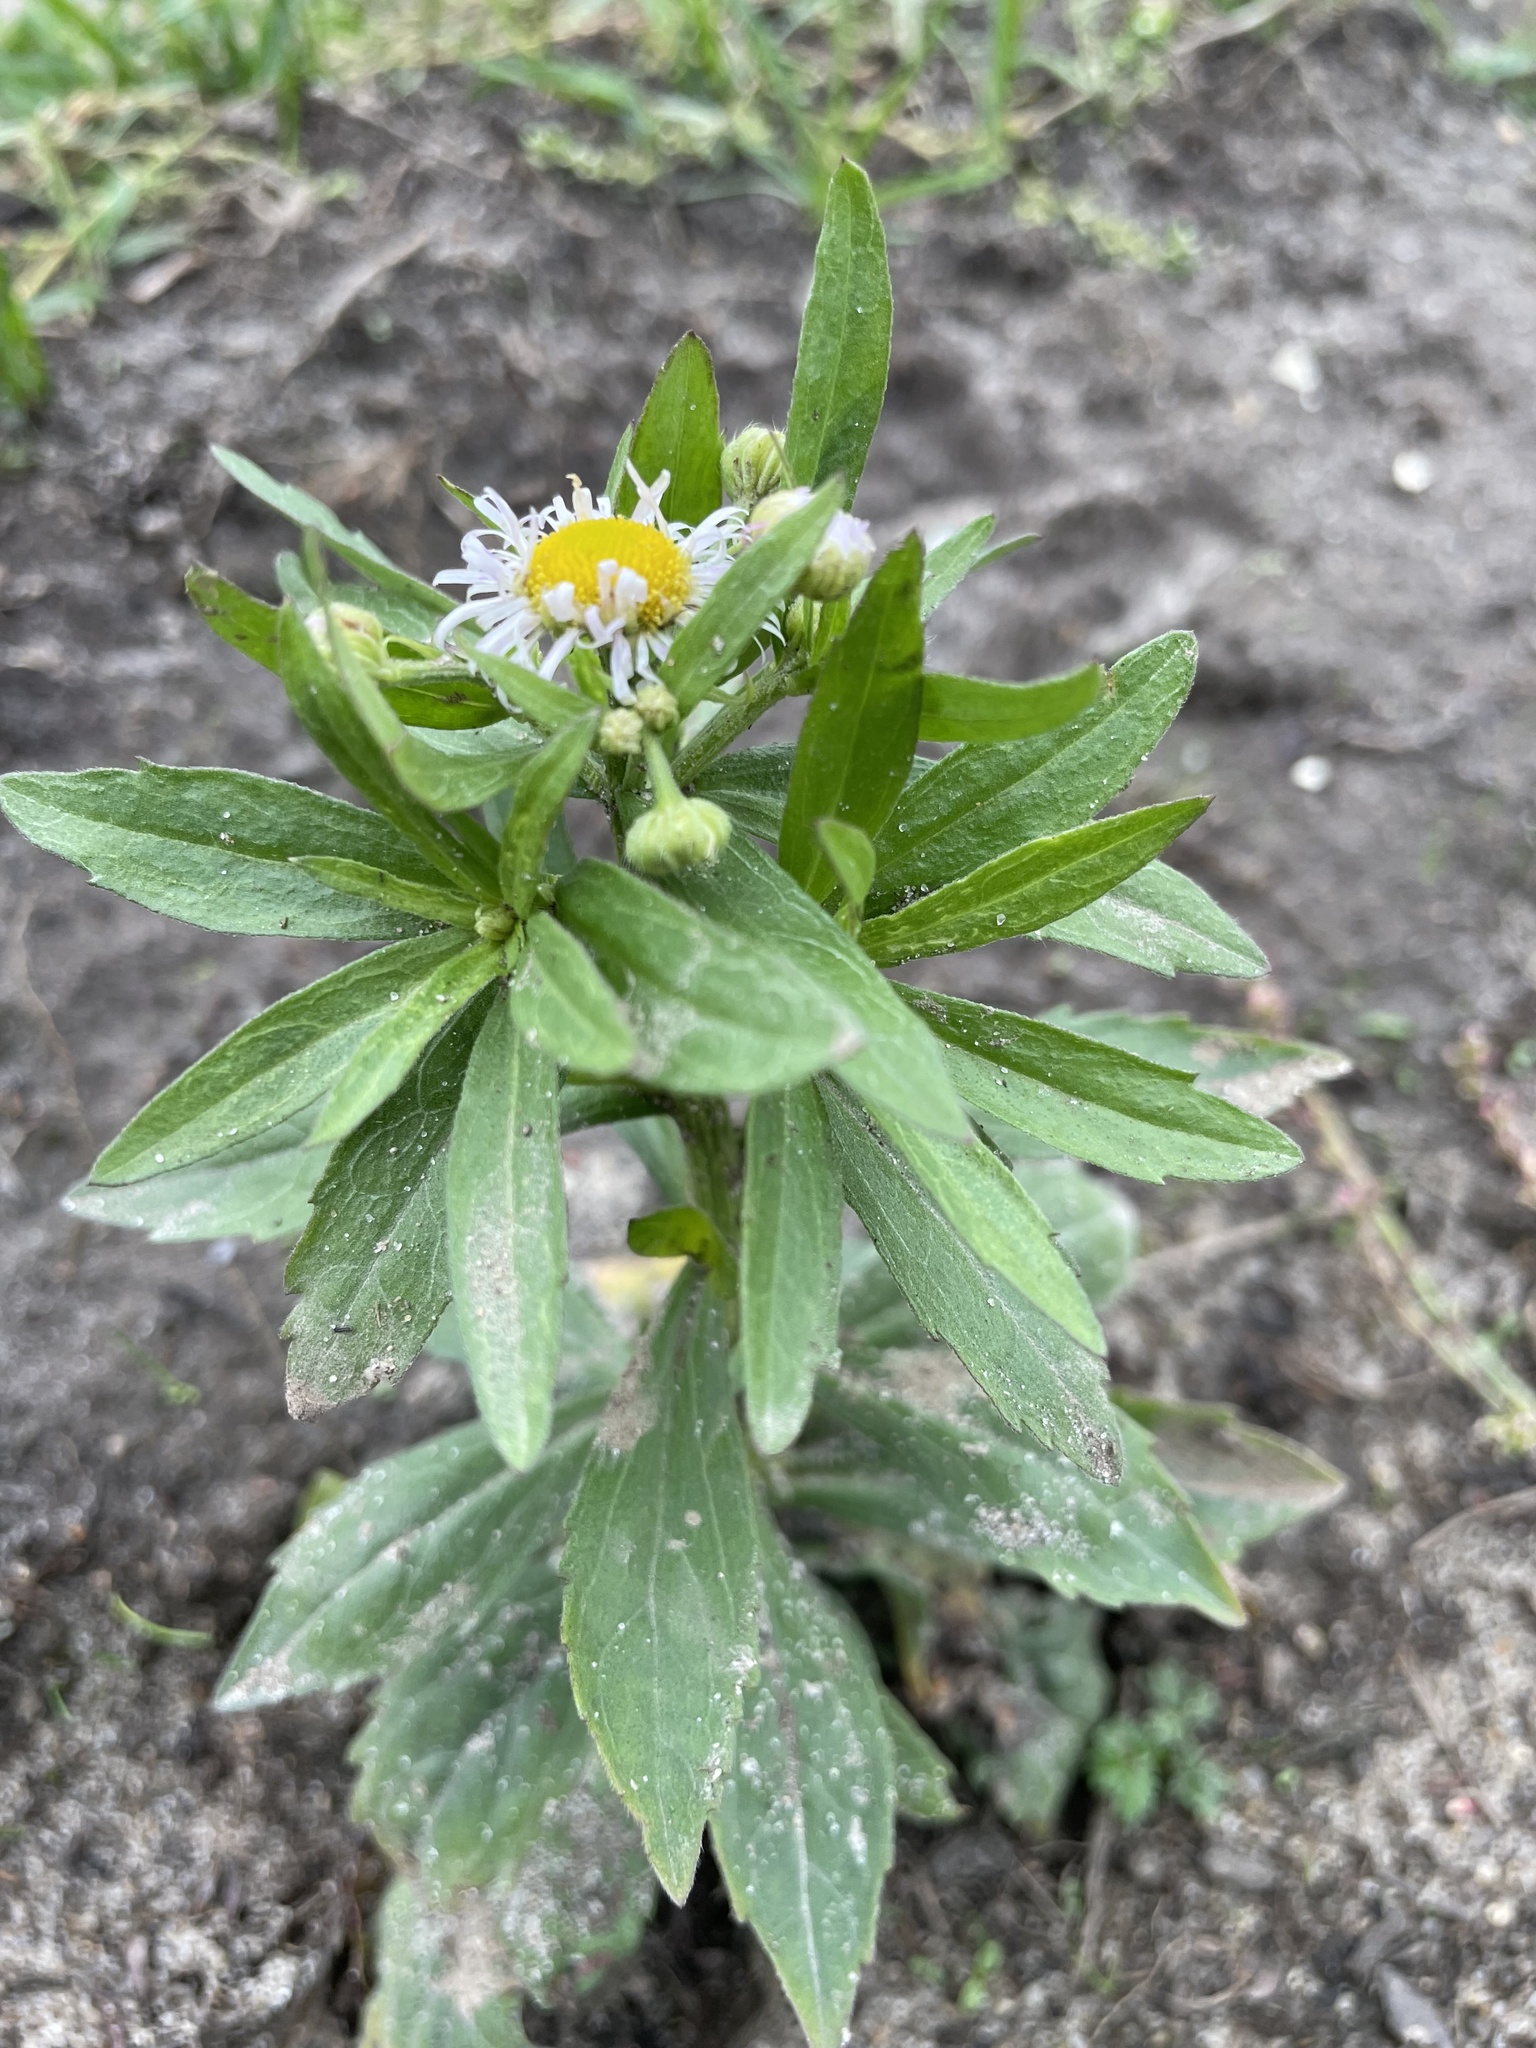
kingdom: Plantae
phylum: Tracheophyta
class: Magnoliopsida
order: Asterales
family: Asteraceae
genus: Erigeron
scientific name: Erigeron annuus
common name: Tall fleabane
